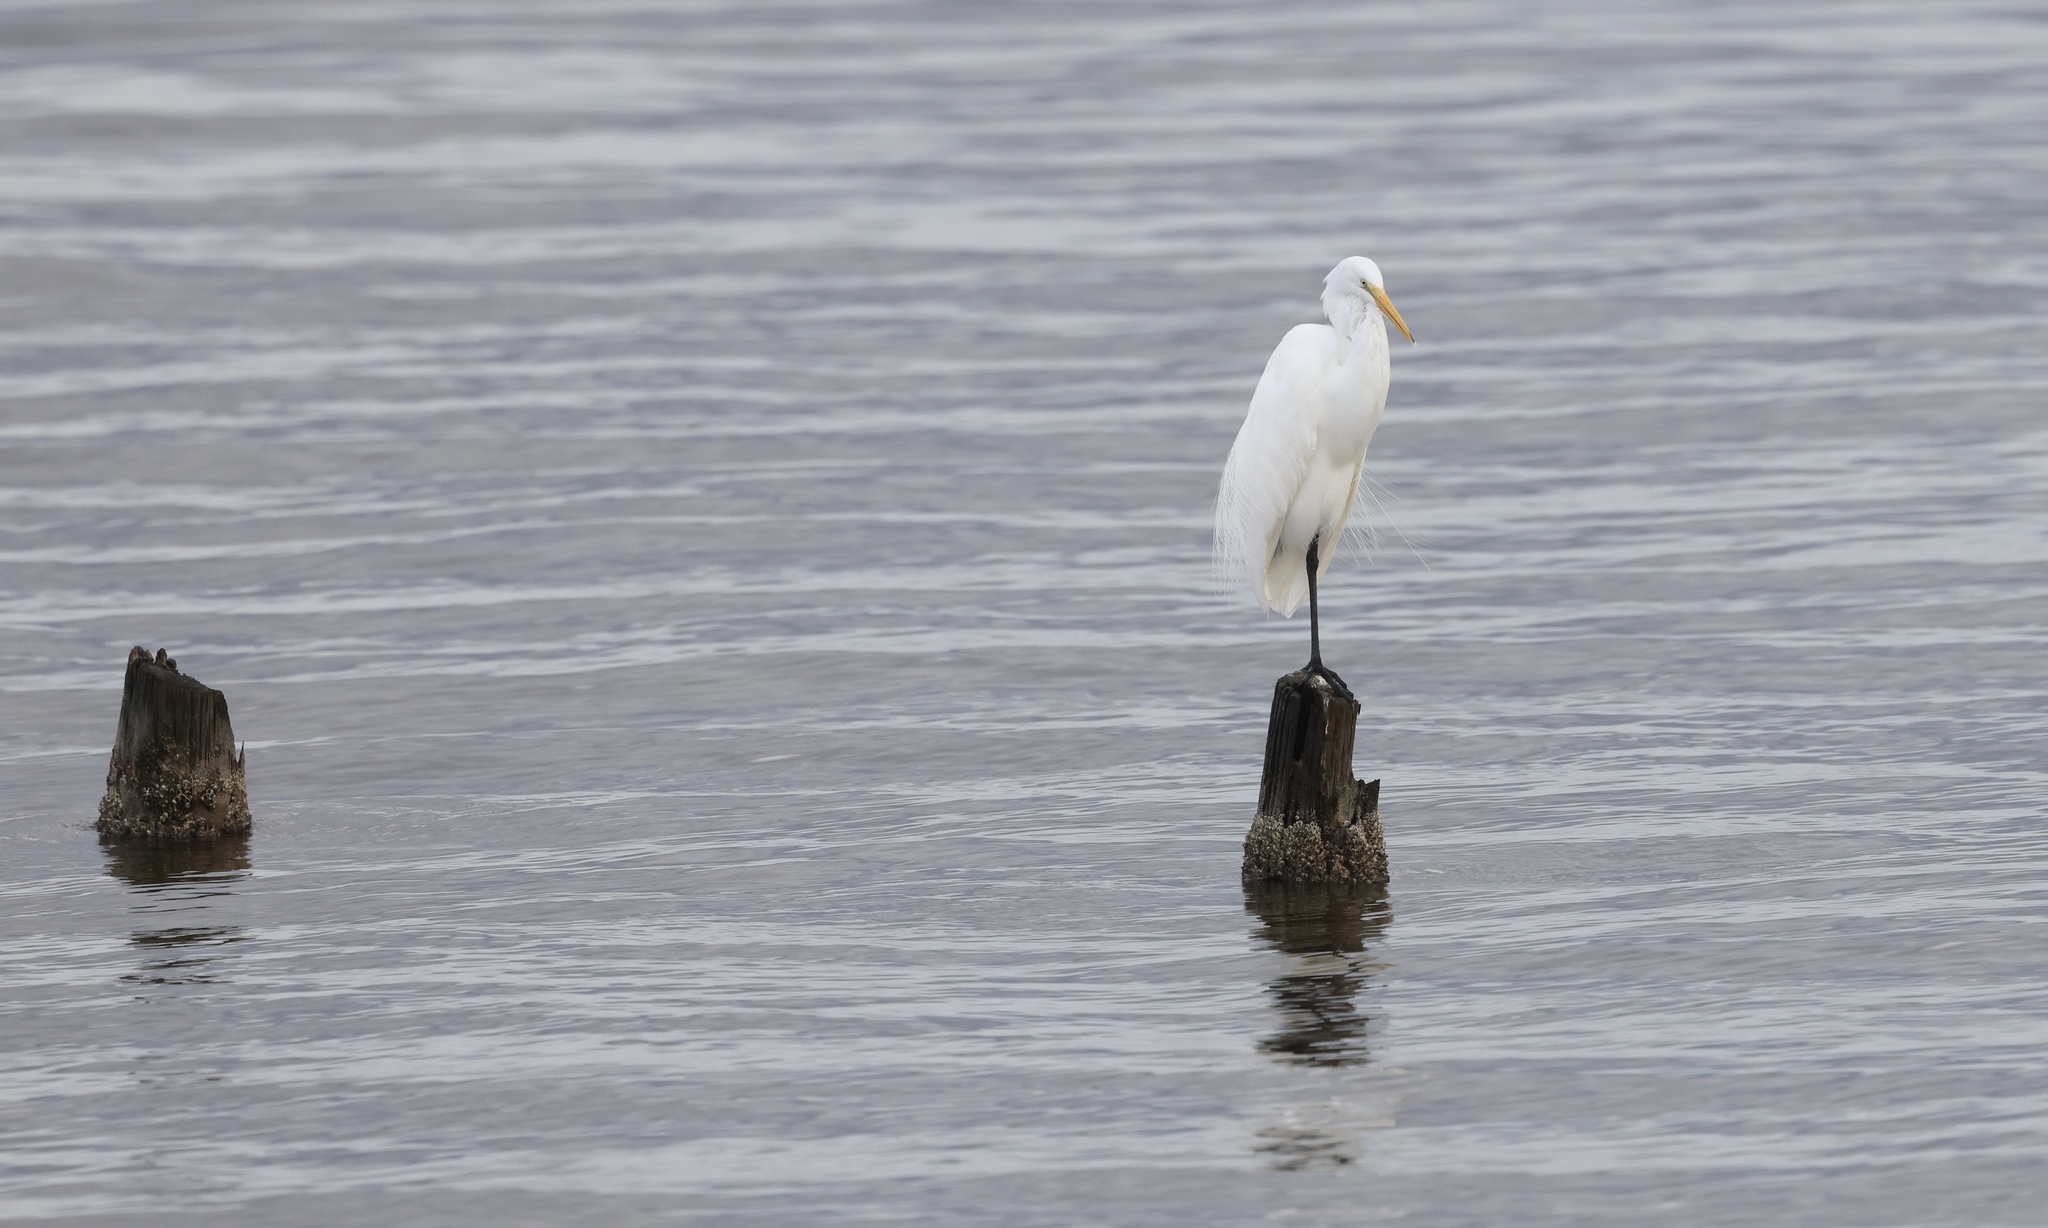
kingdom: Animalia
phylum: Chordata
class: Aves
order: Pelecaniformes
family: Ardeidae
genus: Ardea
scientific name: Ardea alba
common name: Great egret
